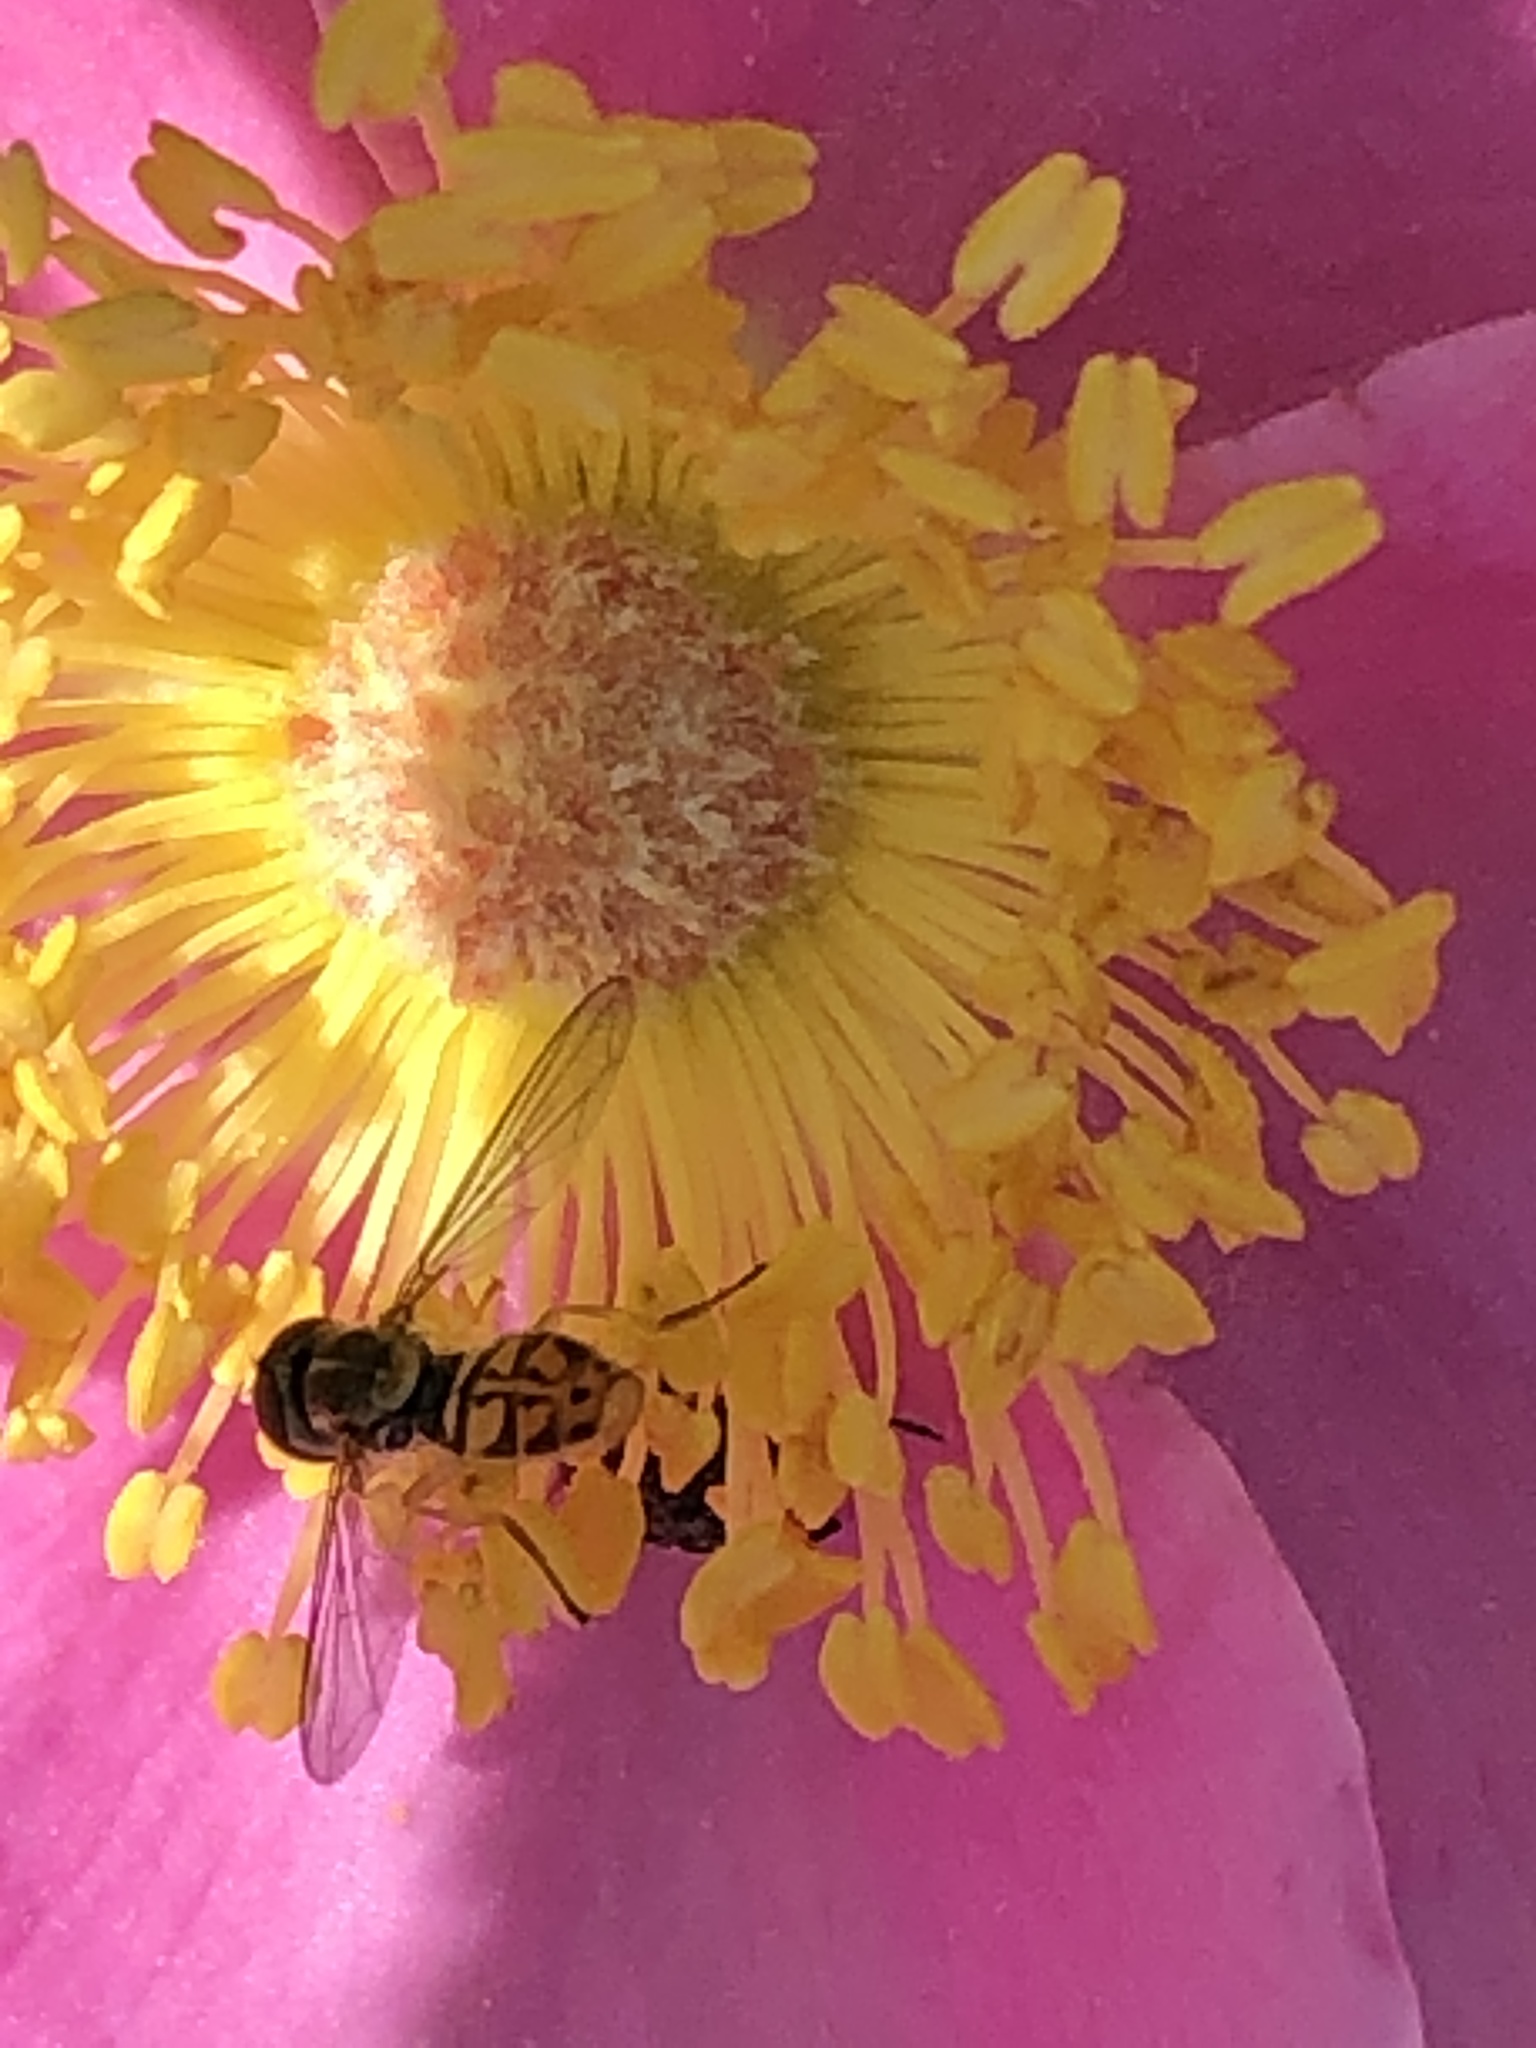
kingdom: Animalia
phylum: Arthropoda
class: Insecta
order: Diptera
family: Syrphidae
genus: Toxomerus
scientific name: Toxomerus marginatus
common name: Syrphid fly
